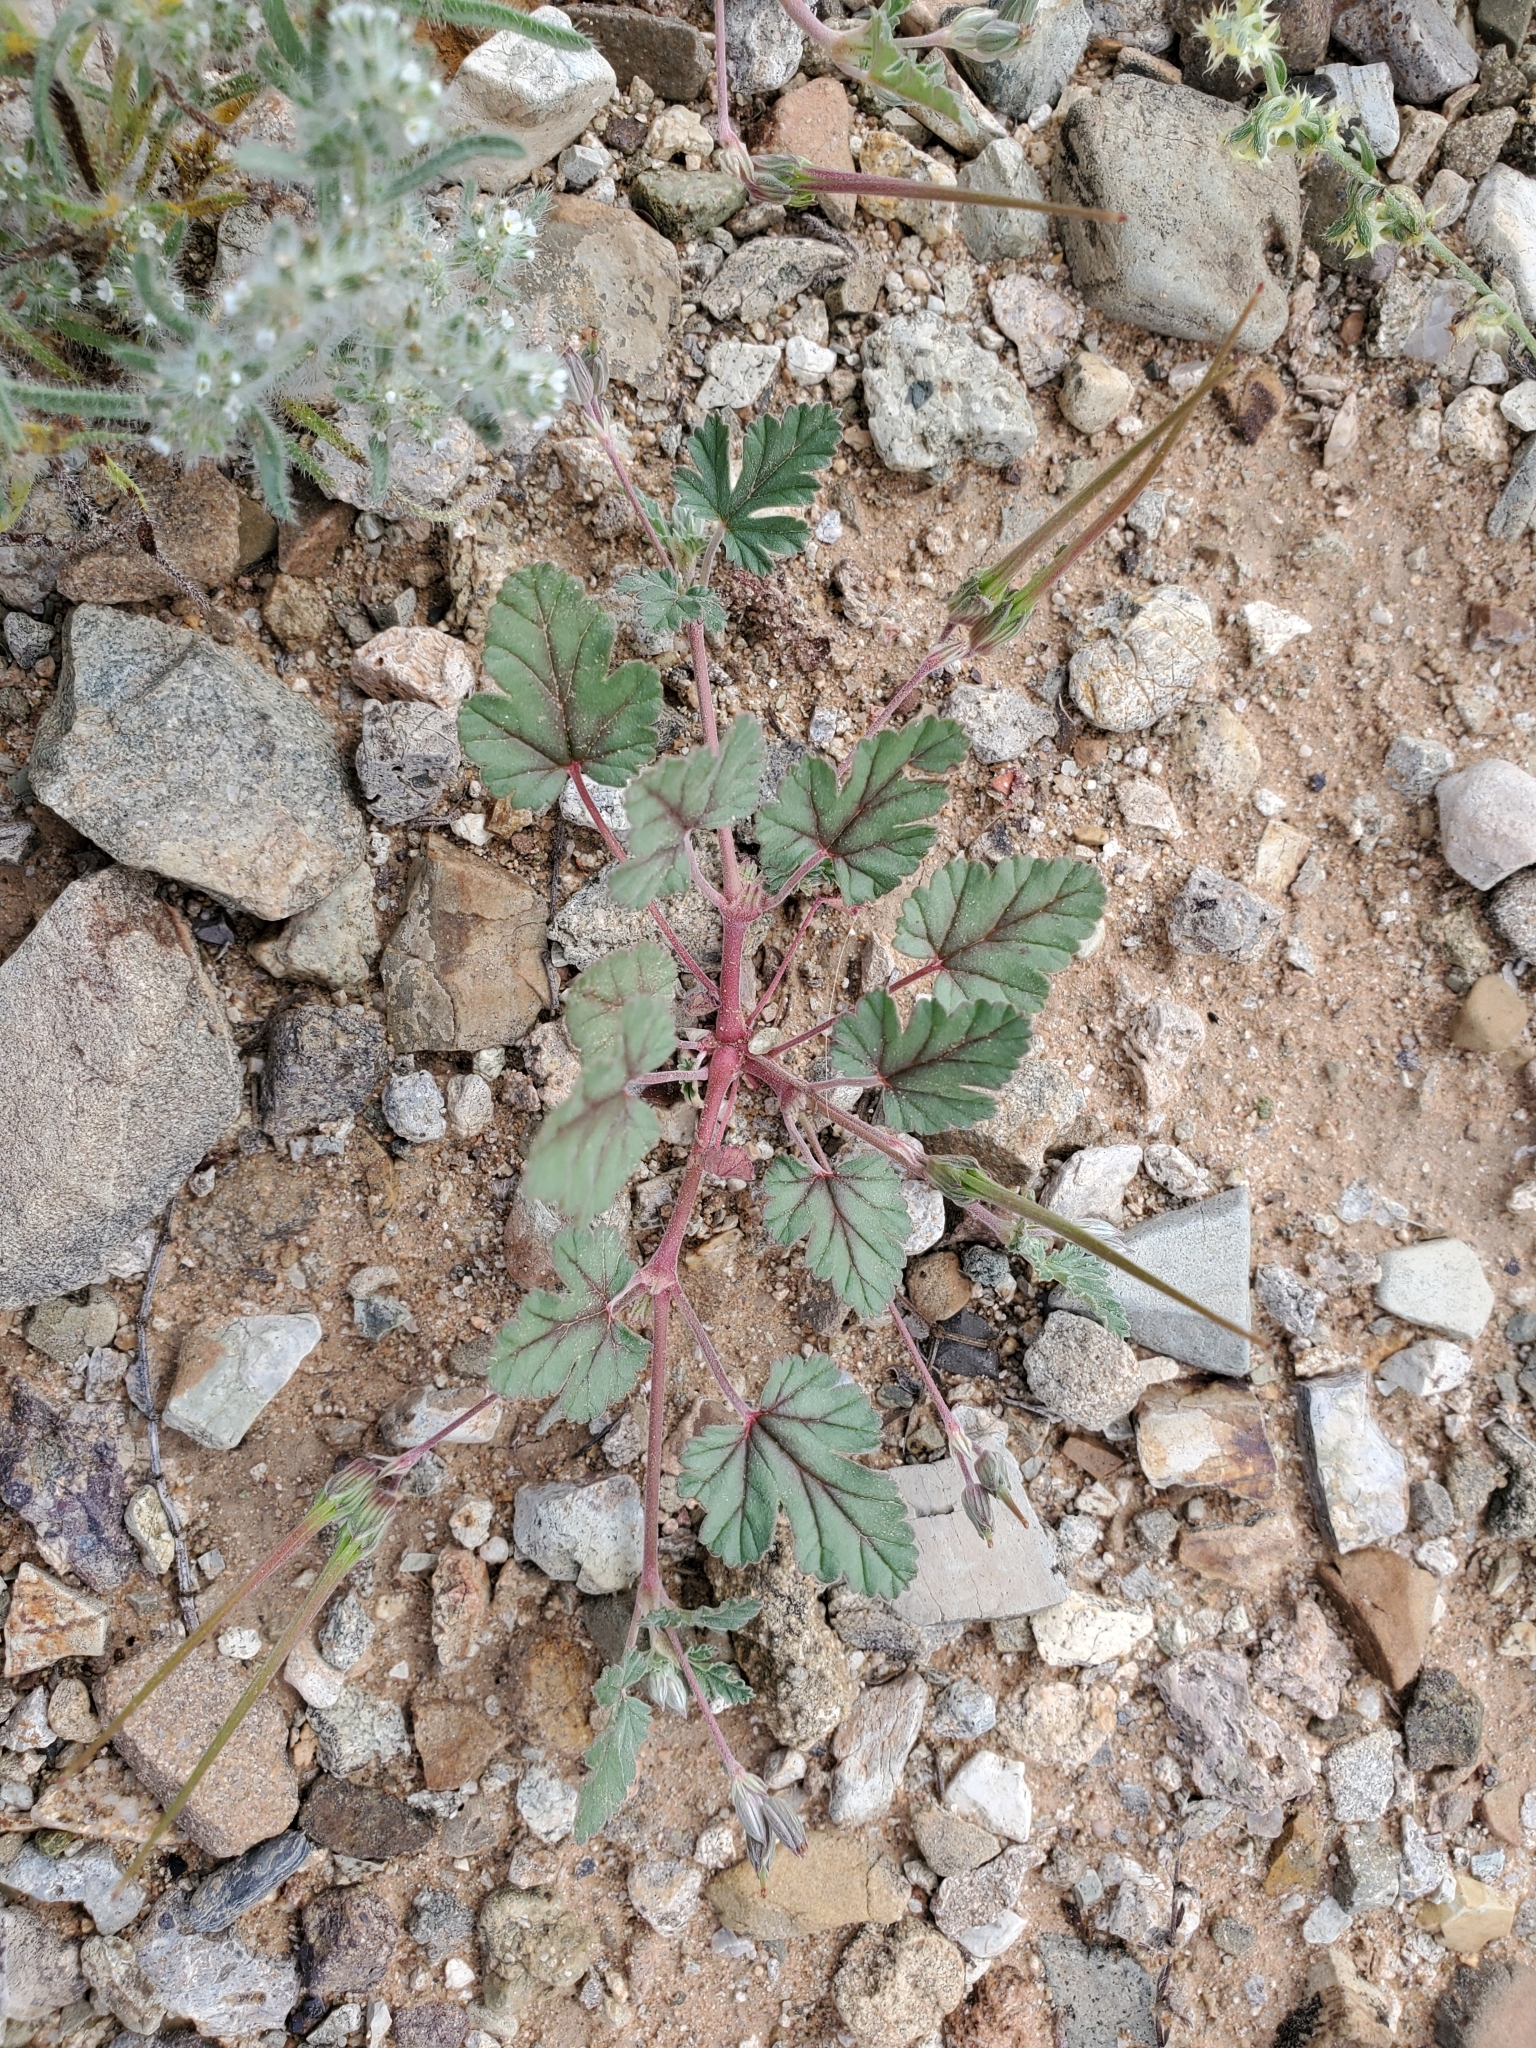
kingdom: Plantae
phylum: Tracheophyta
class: Magnoliopsida
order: Geraniales
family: Geraniaceae
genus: Erodium
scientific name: Erodium texanum
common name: Texas stork's-bill
